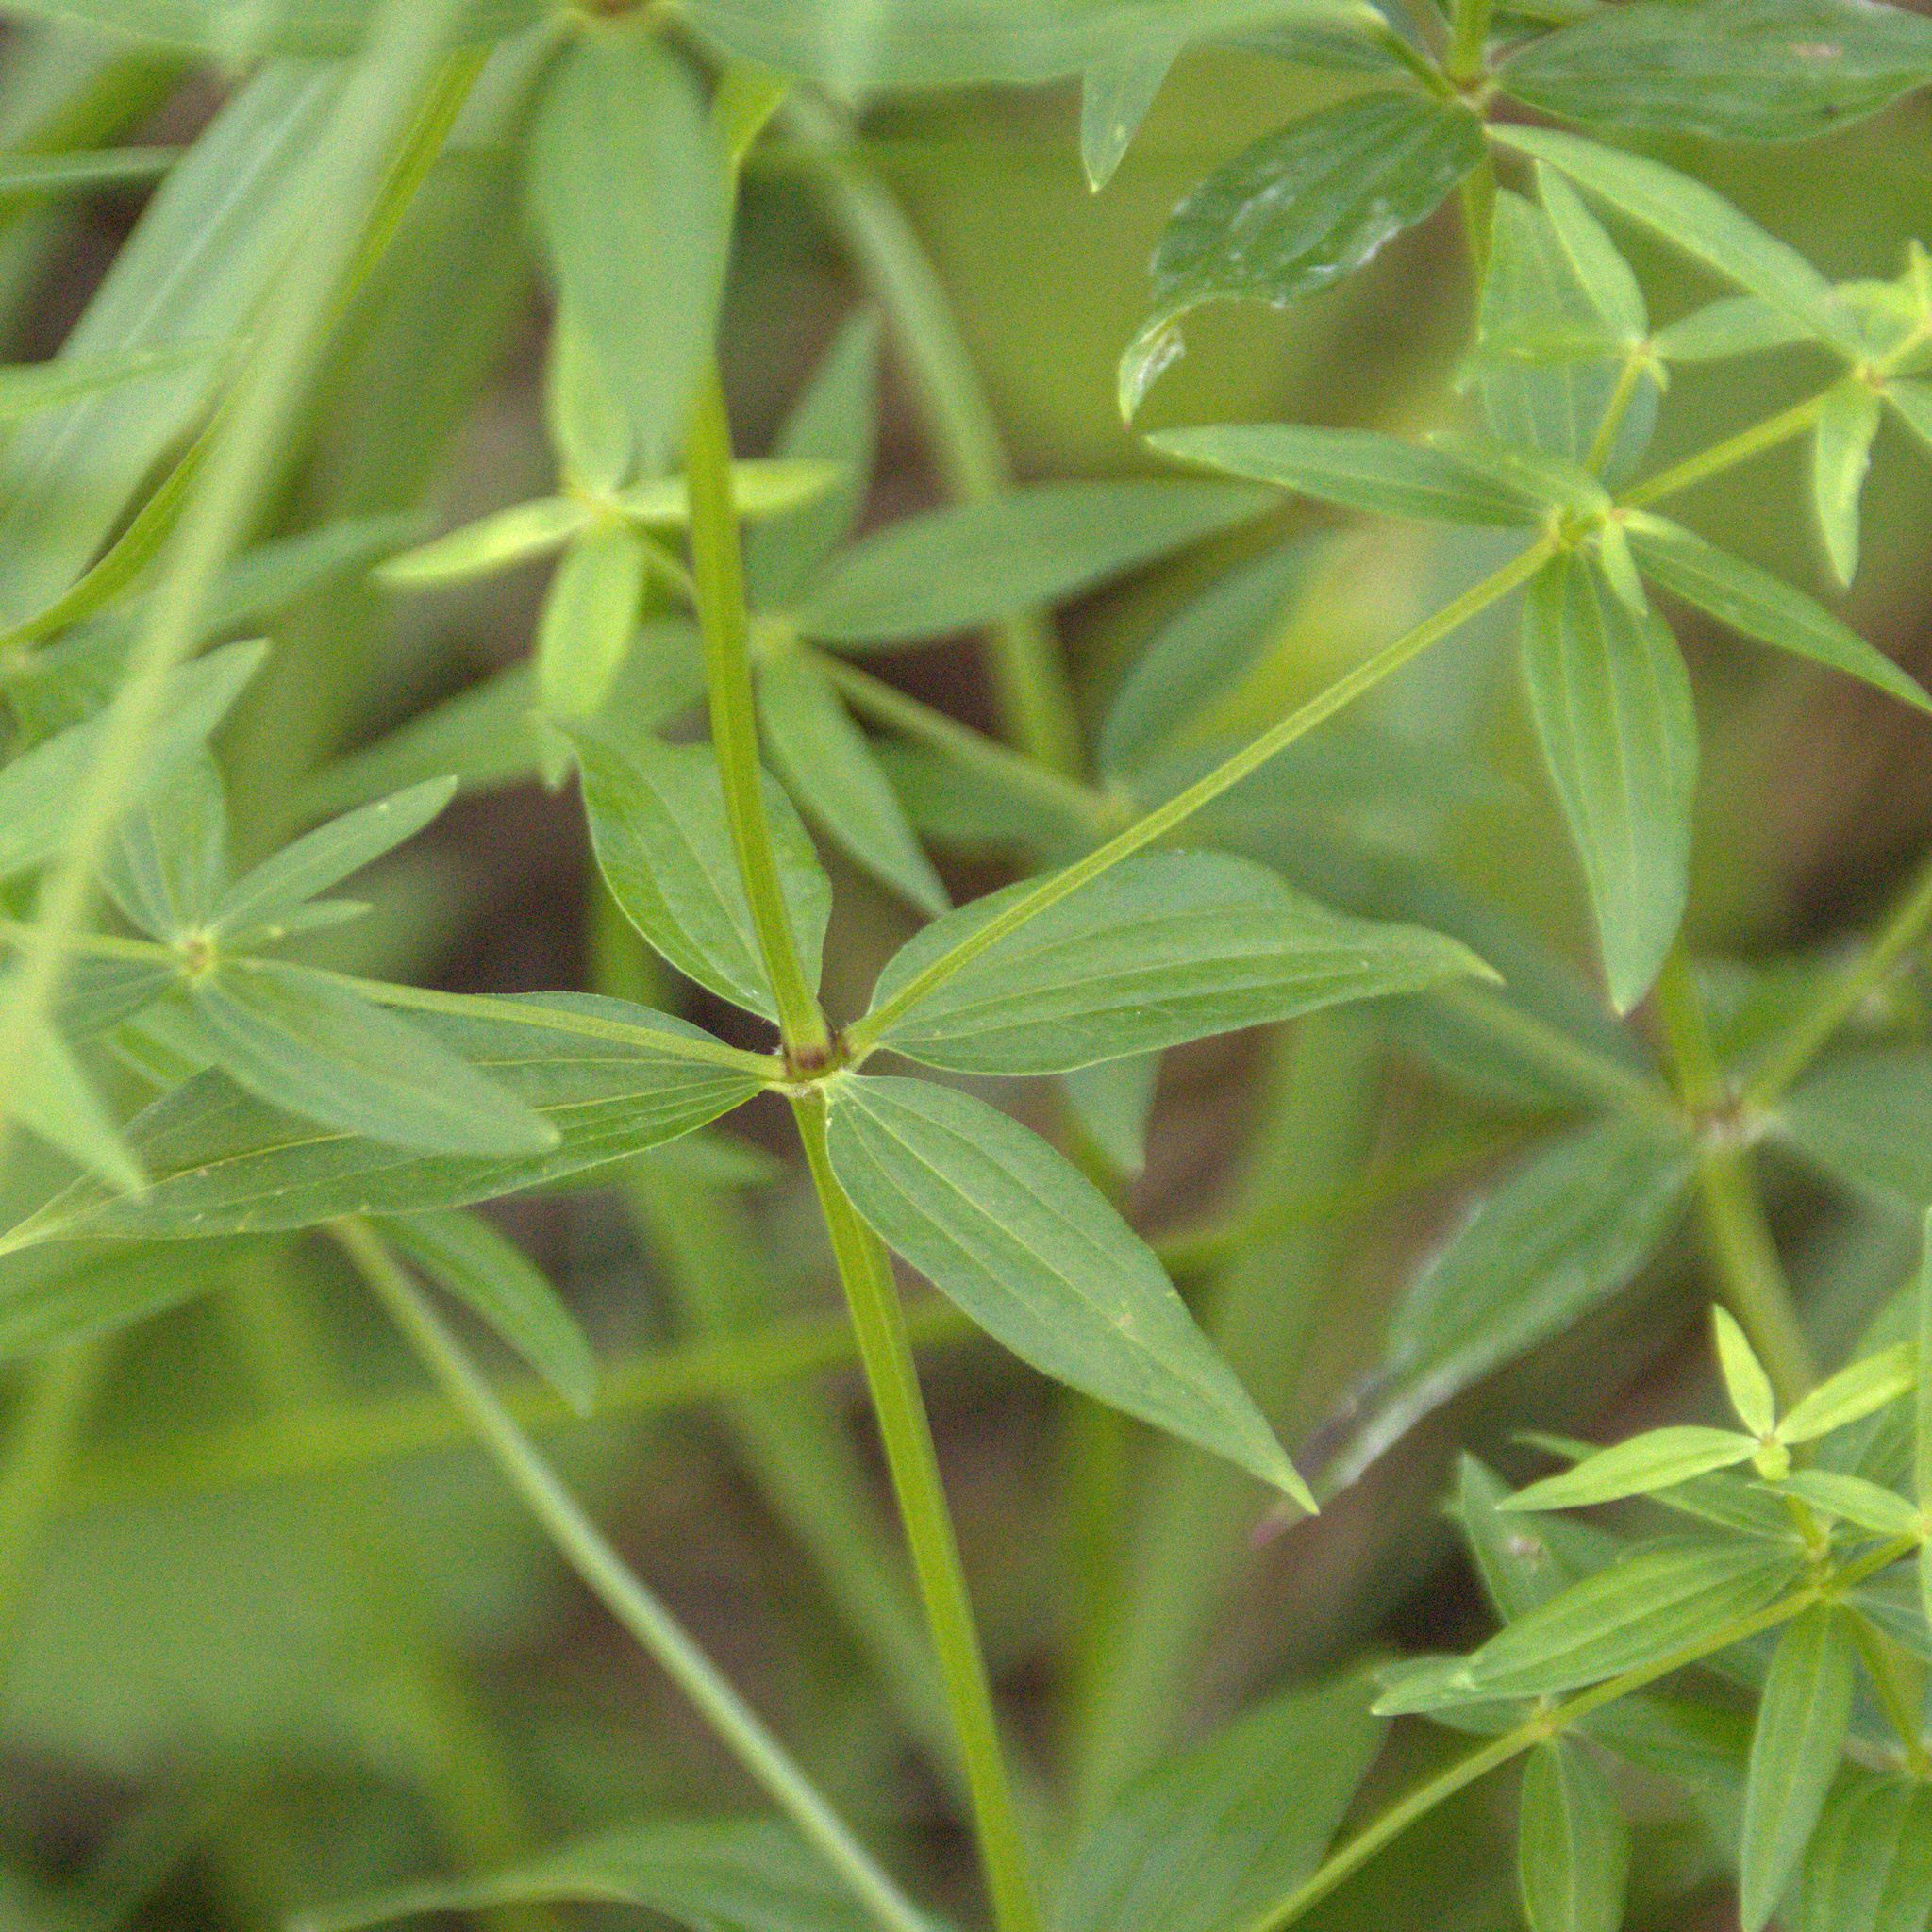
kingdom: Plantae
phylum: Tracheophyta
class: Magnoliopsida
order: Gentianales
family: Rubiaceae
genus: Galium
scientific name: Galium boreale
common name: Northern bedstraw
